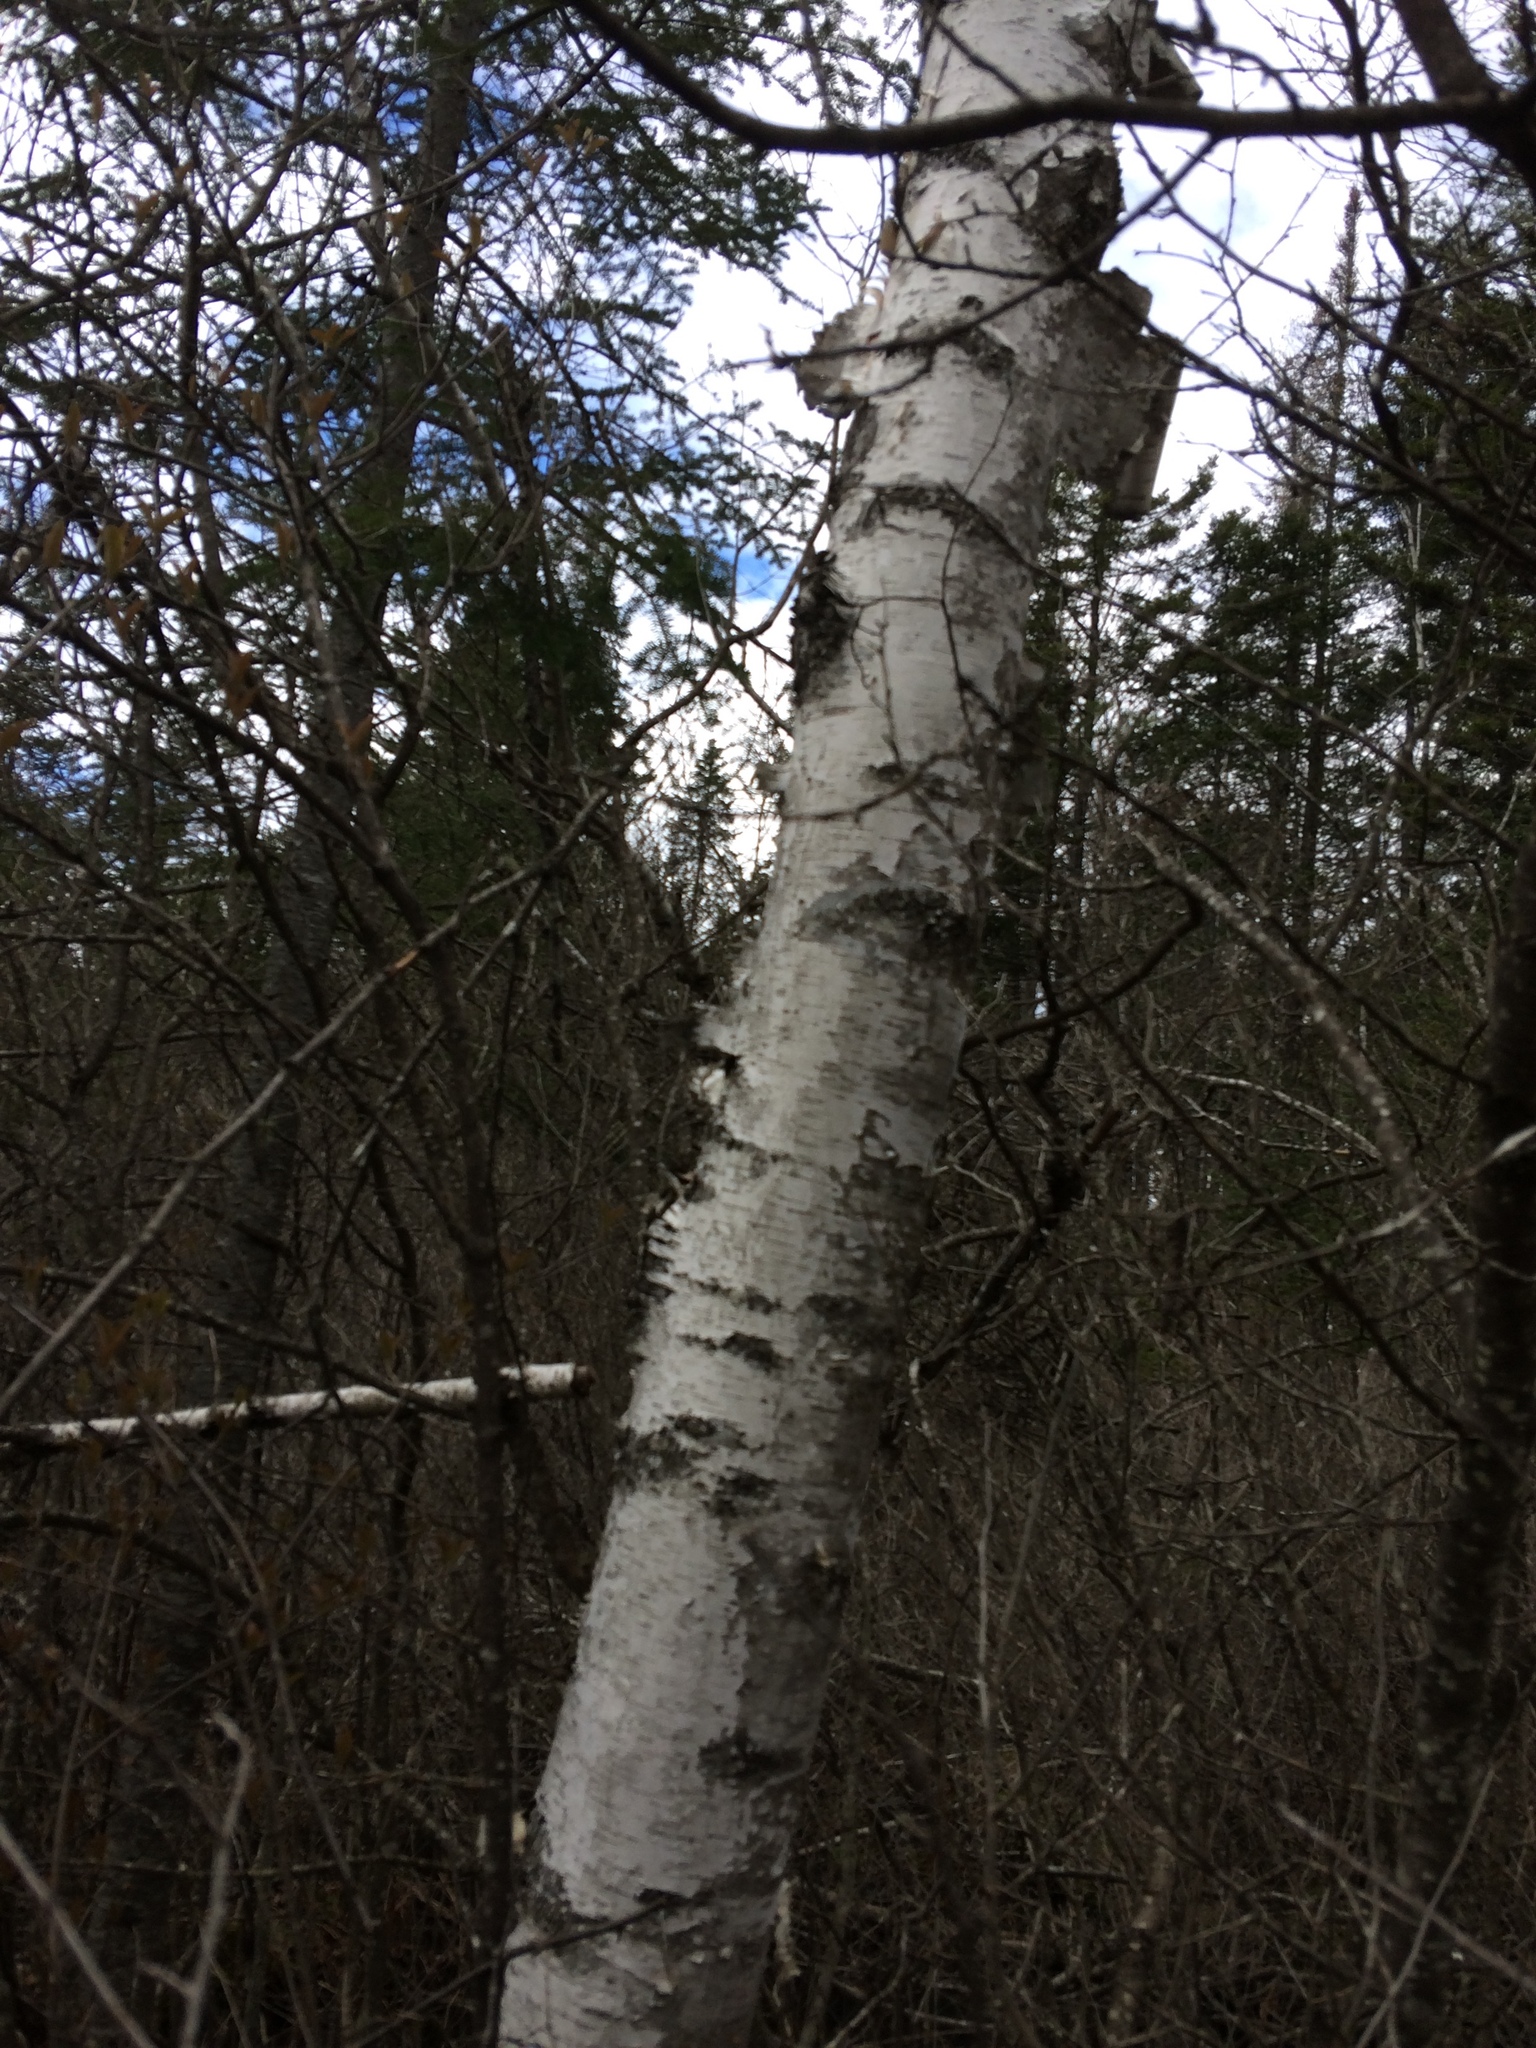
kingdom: Plantae
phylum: Tracheophyta
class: Magnoliopsida
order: Fagales
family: Betulaceae
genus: Betula
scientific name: Betula papyrifera
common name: Paper birch
